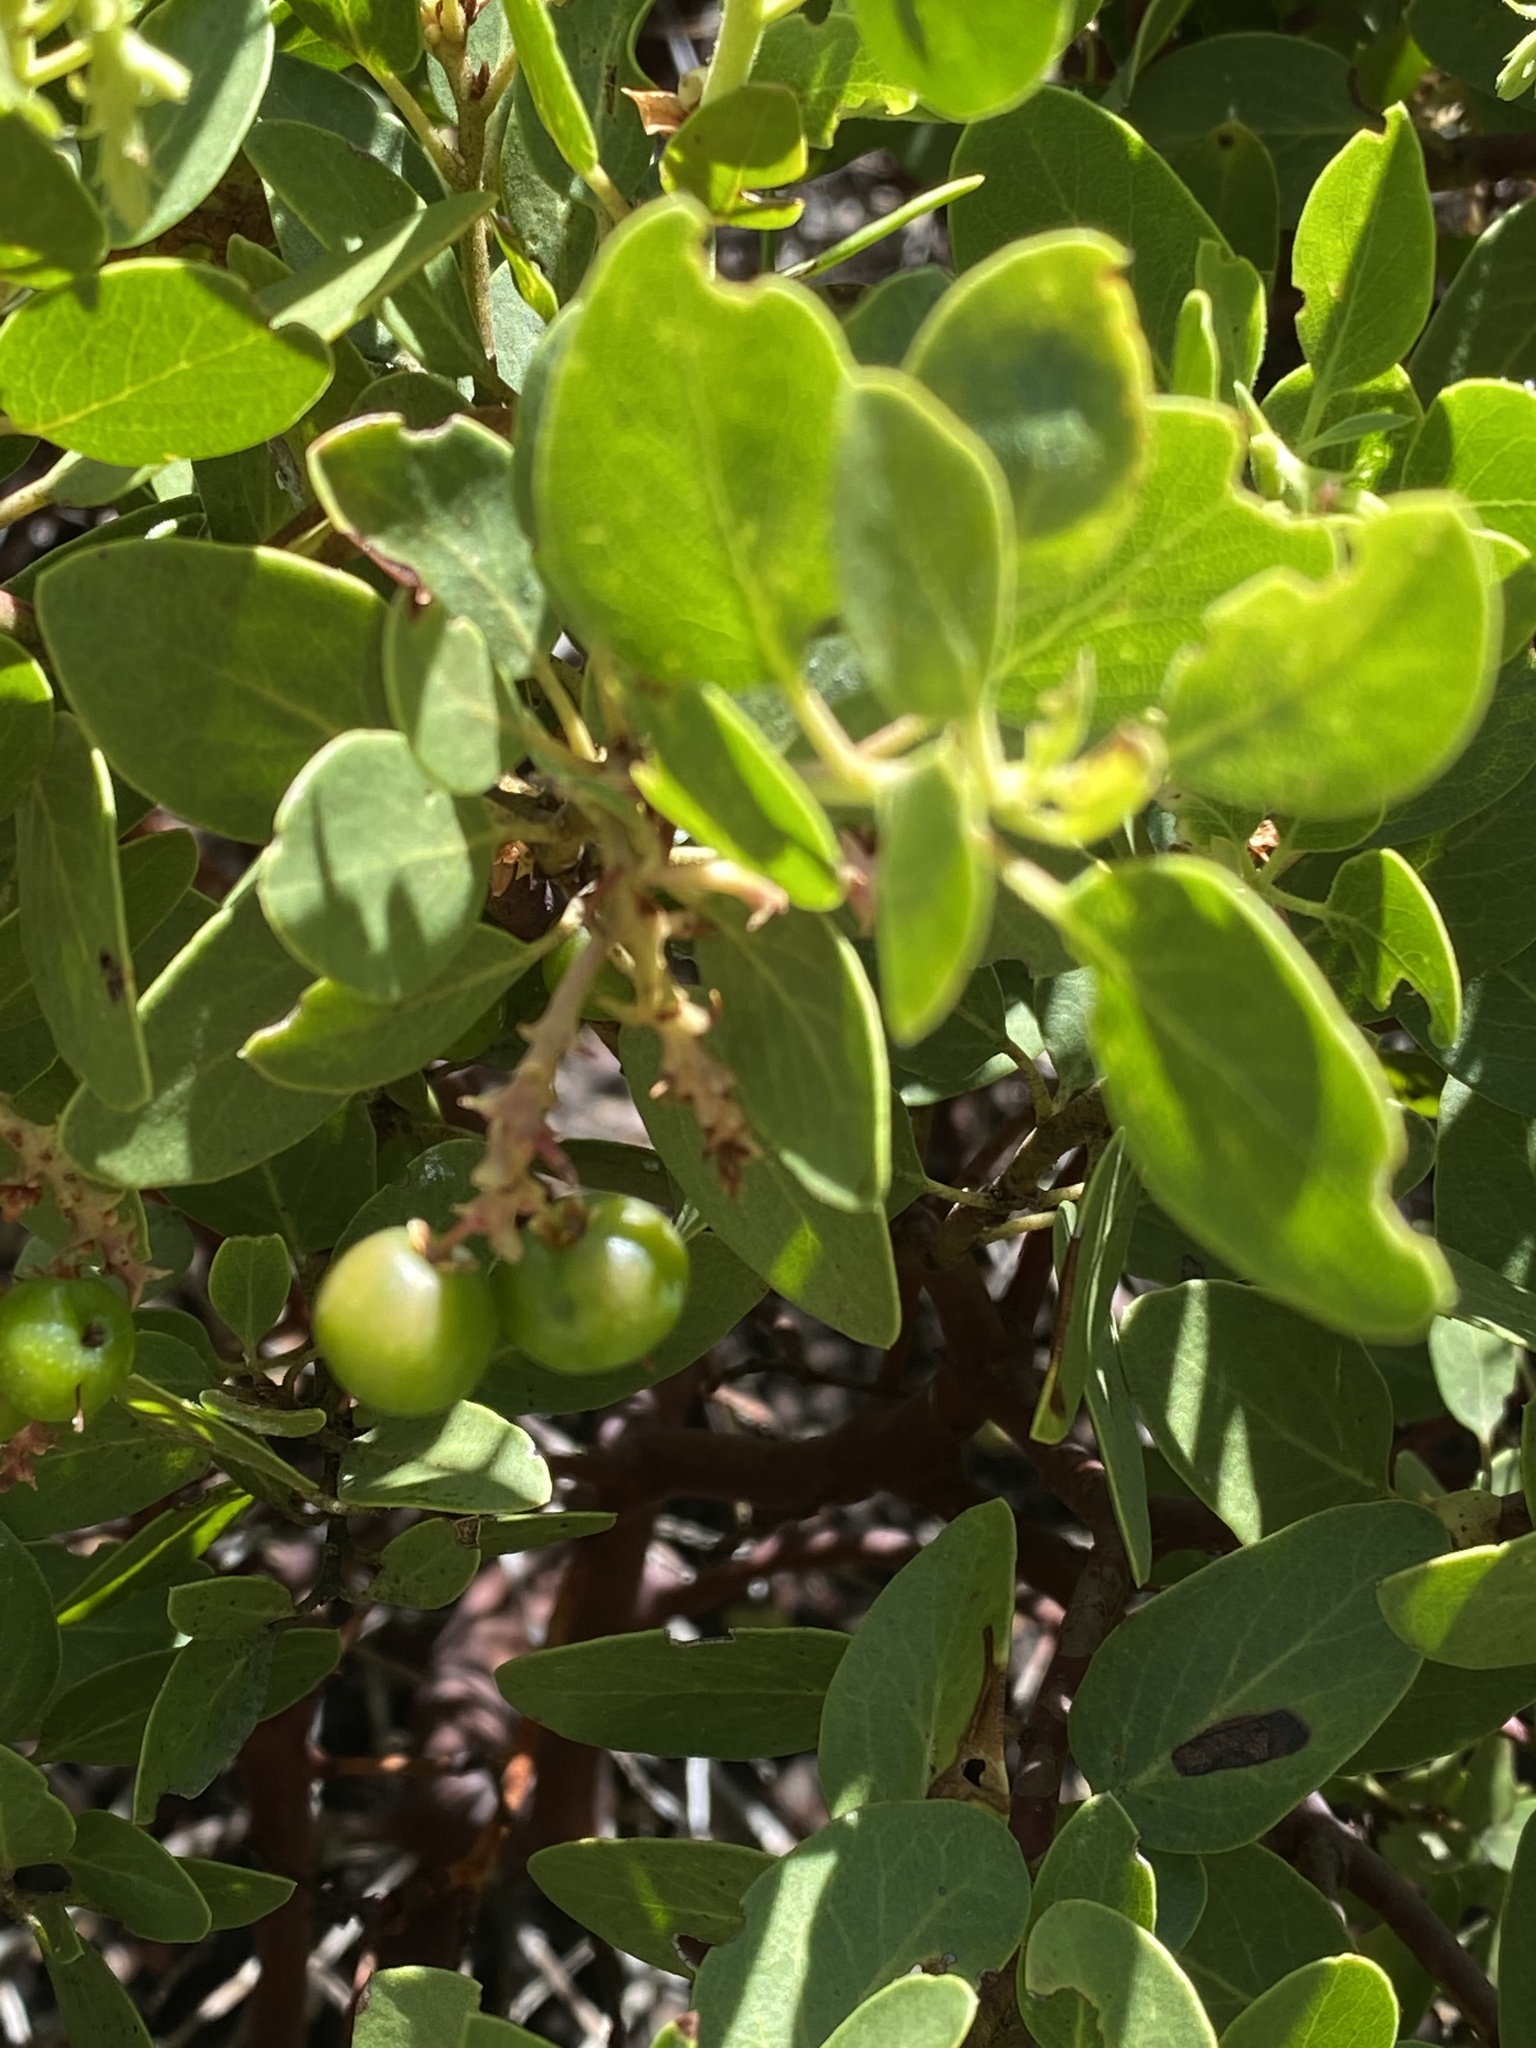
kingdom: Plantae
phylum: Tracheophyta
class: Magnoliopsida
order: Ericales
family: Ericaceae
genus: Arctostaphylos
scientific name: Arctostaphylos patula
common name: Green-leaf manzanita
